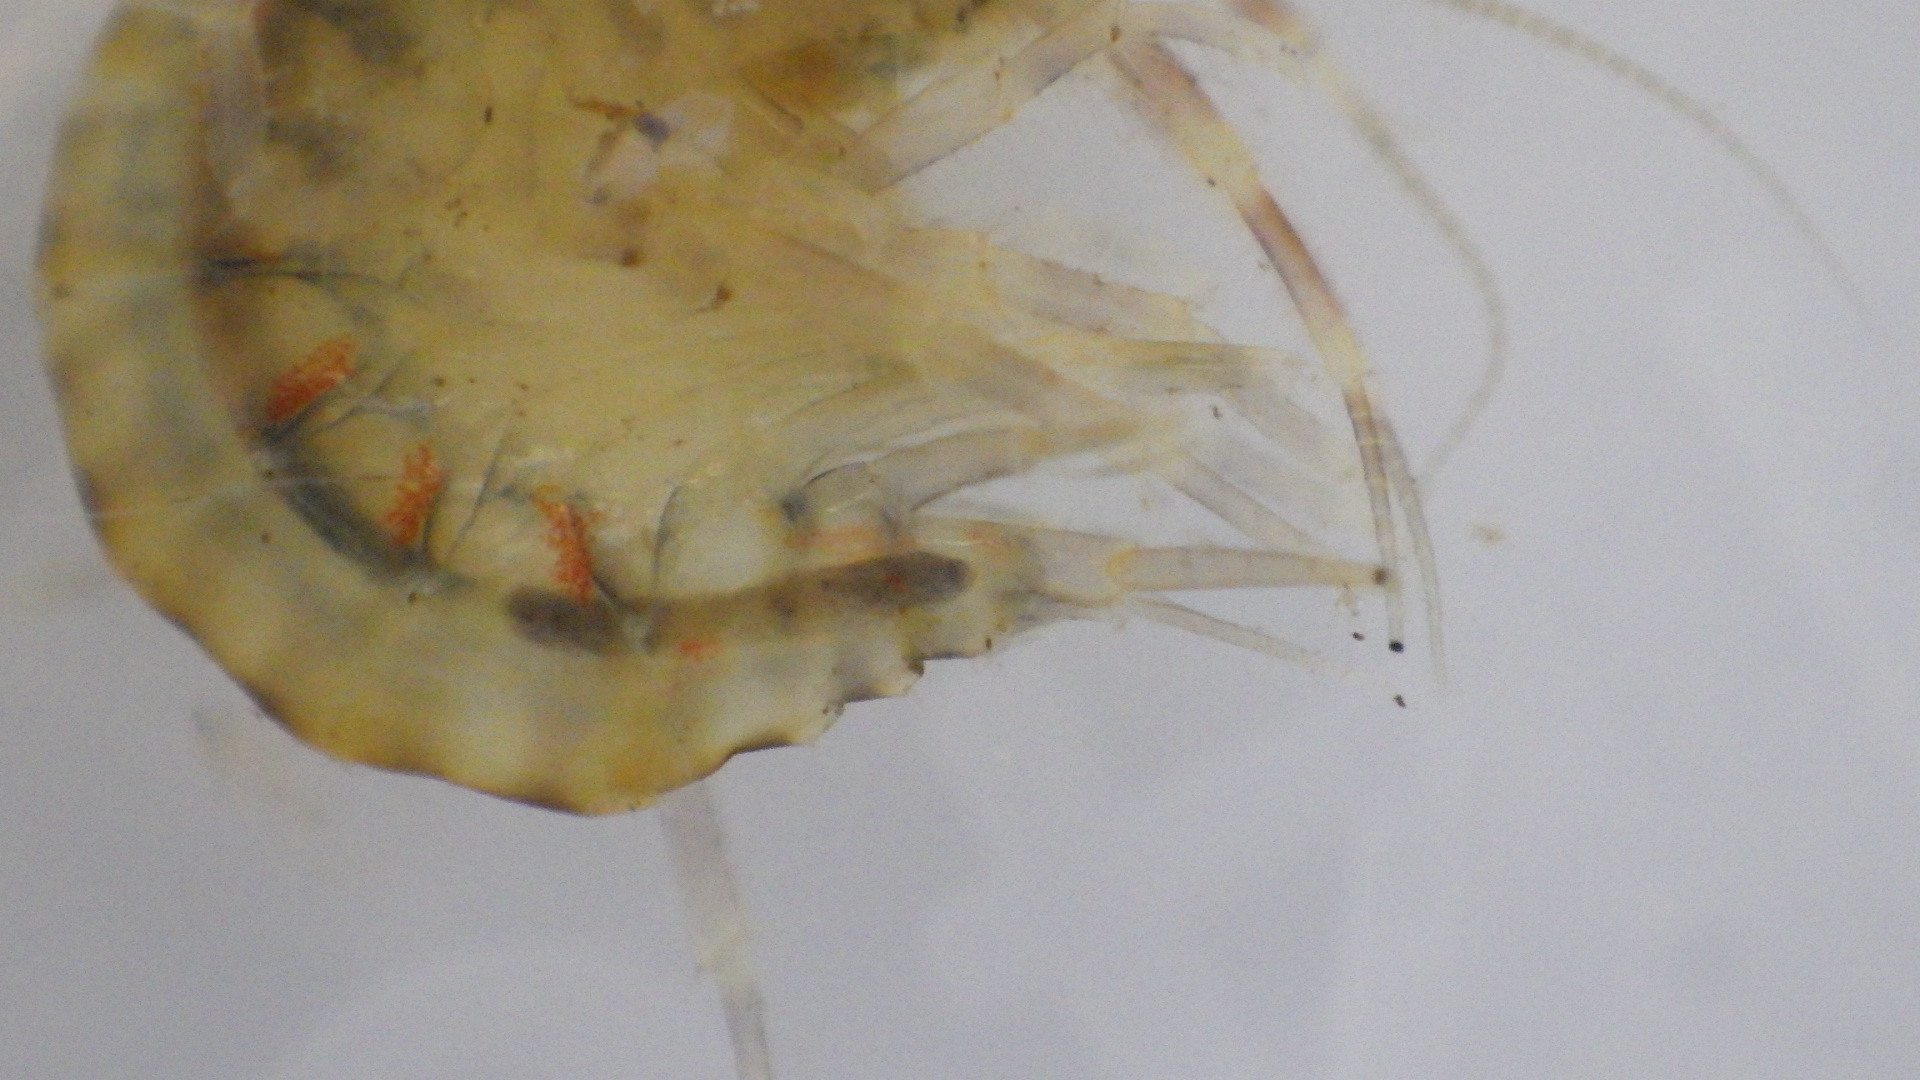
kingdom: Animalia
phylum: Arthropoda
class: Malacostraca
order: Amphipoda
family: Gammaridae
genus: Gammarus
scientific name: Gammarus fasciatus
